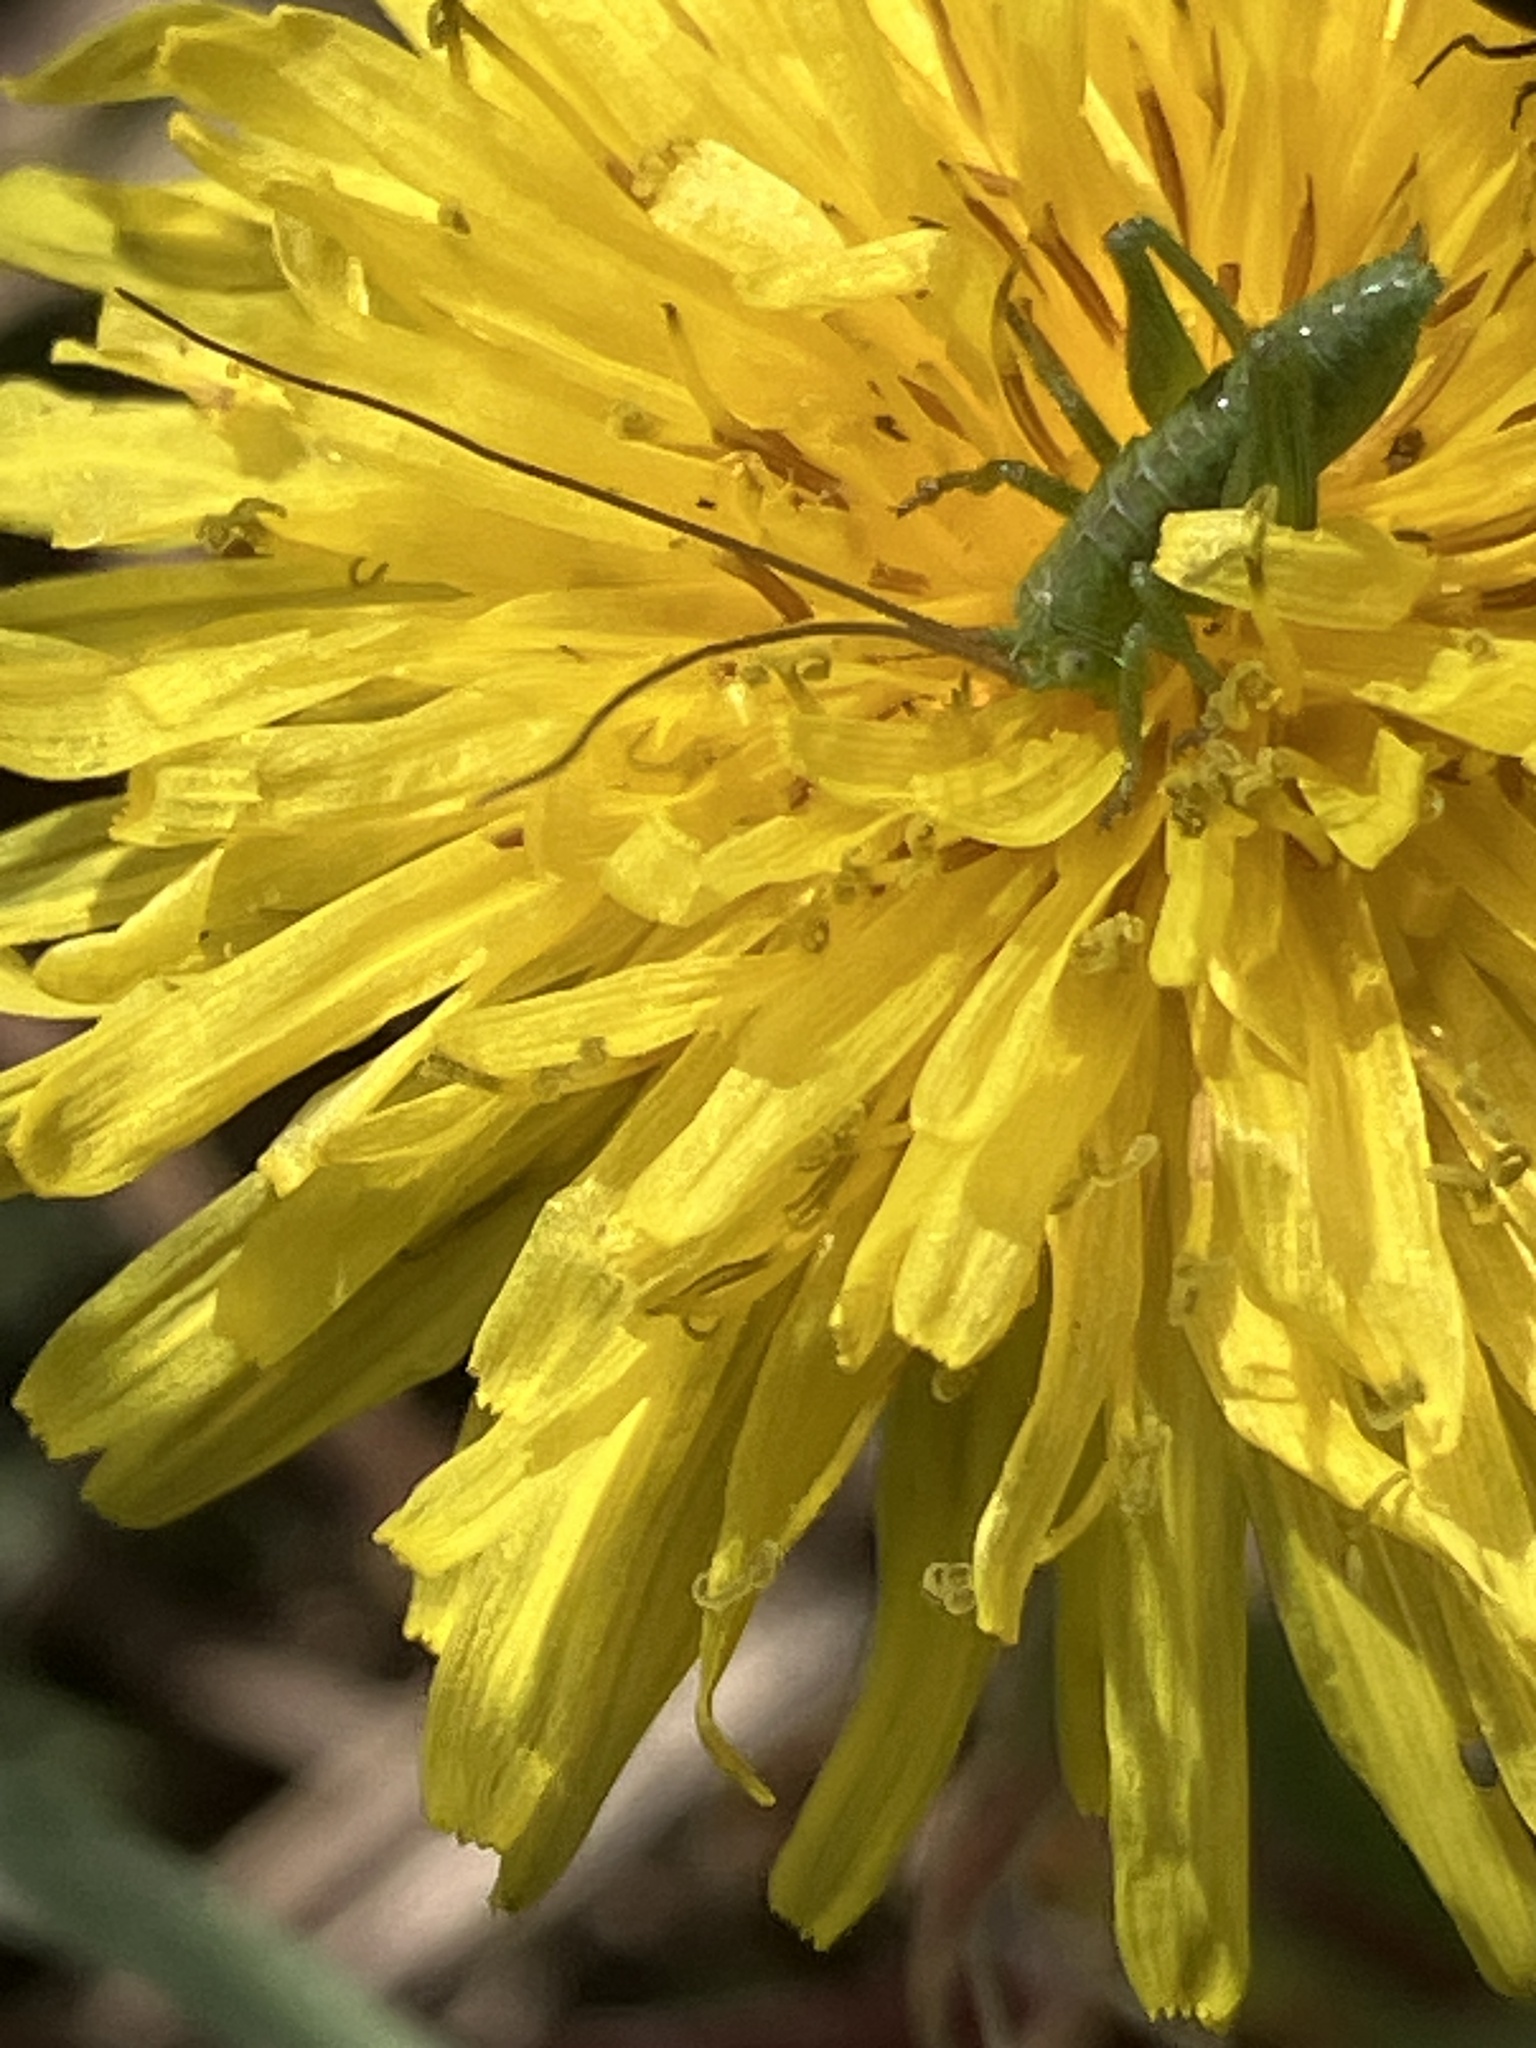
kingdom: Animalia
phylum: Arthropoda
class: Insecta
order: Orthoptera
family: Tettigoniidae
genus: Tettigonia
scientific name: Tettigonia viridissima
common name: Great green bush-cricket
